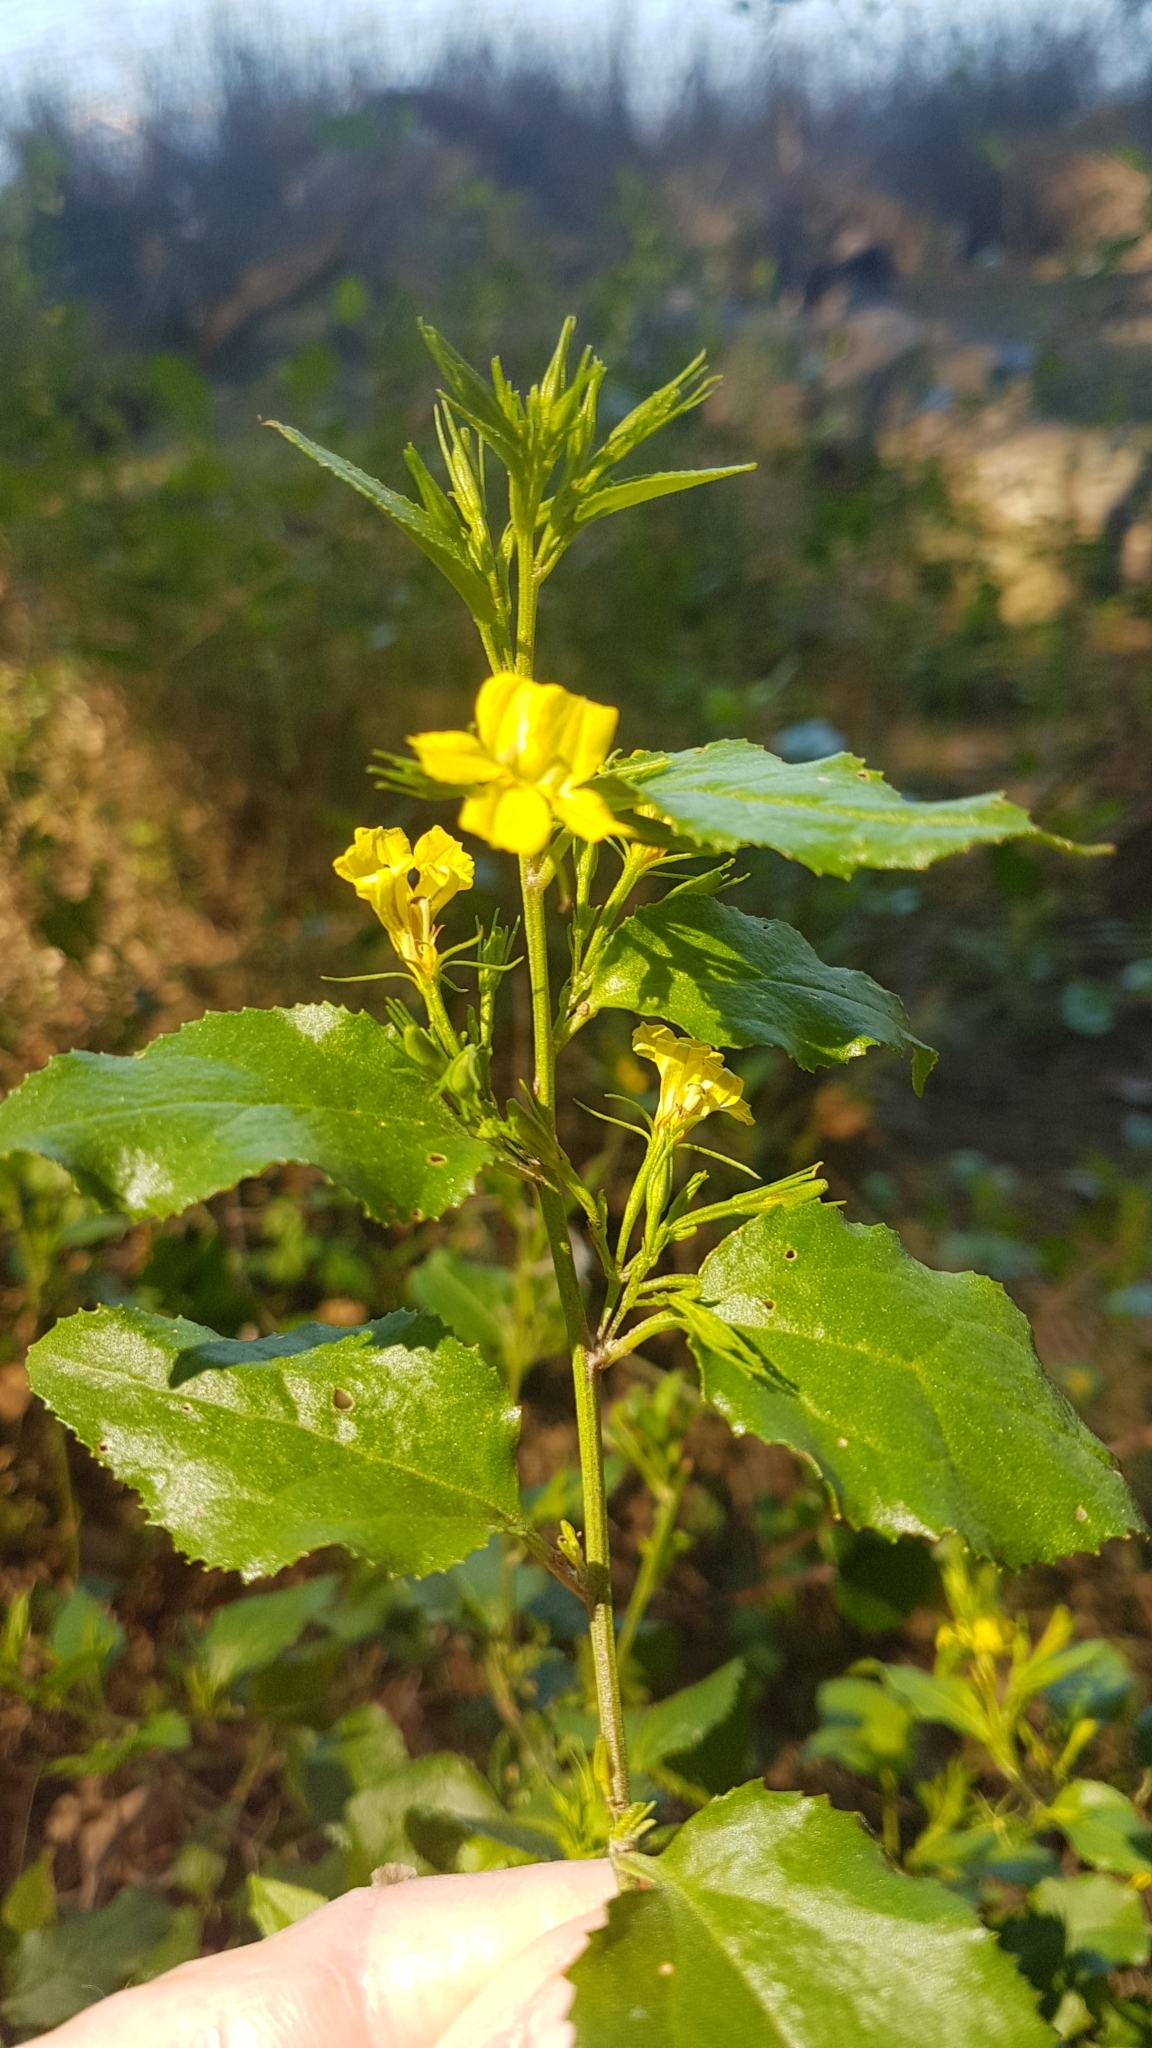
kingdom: Plantae
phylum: Tracheophyta
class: Magnoliopsida
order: Asterales
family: Goodeniaceae
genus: Goodenia
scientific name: Goodenia ovata
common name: Hop goodenia
